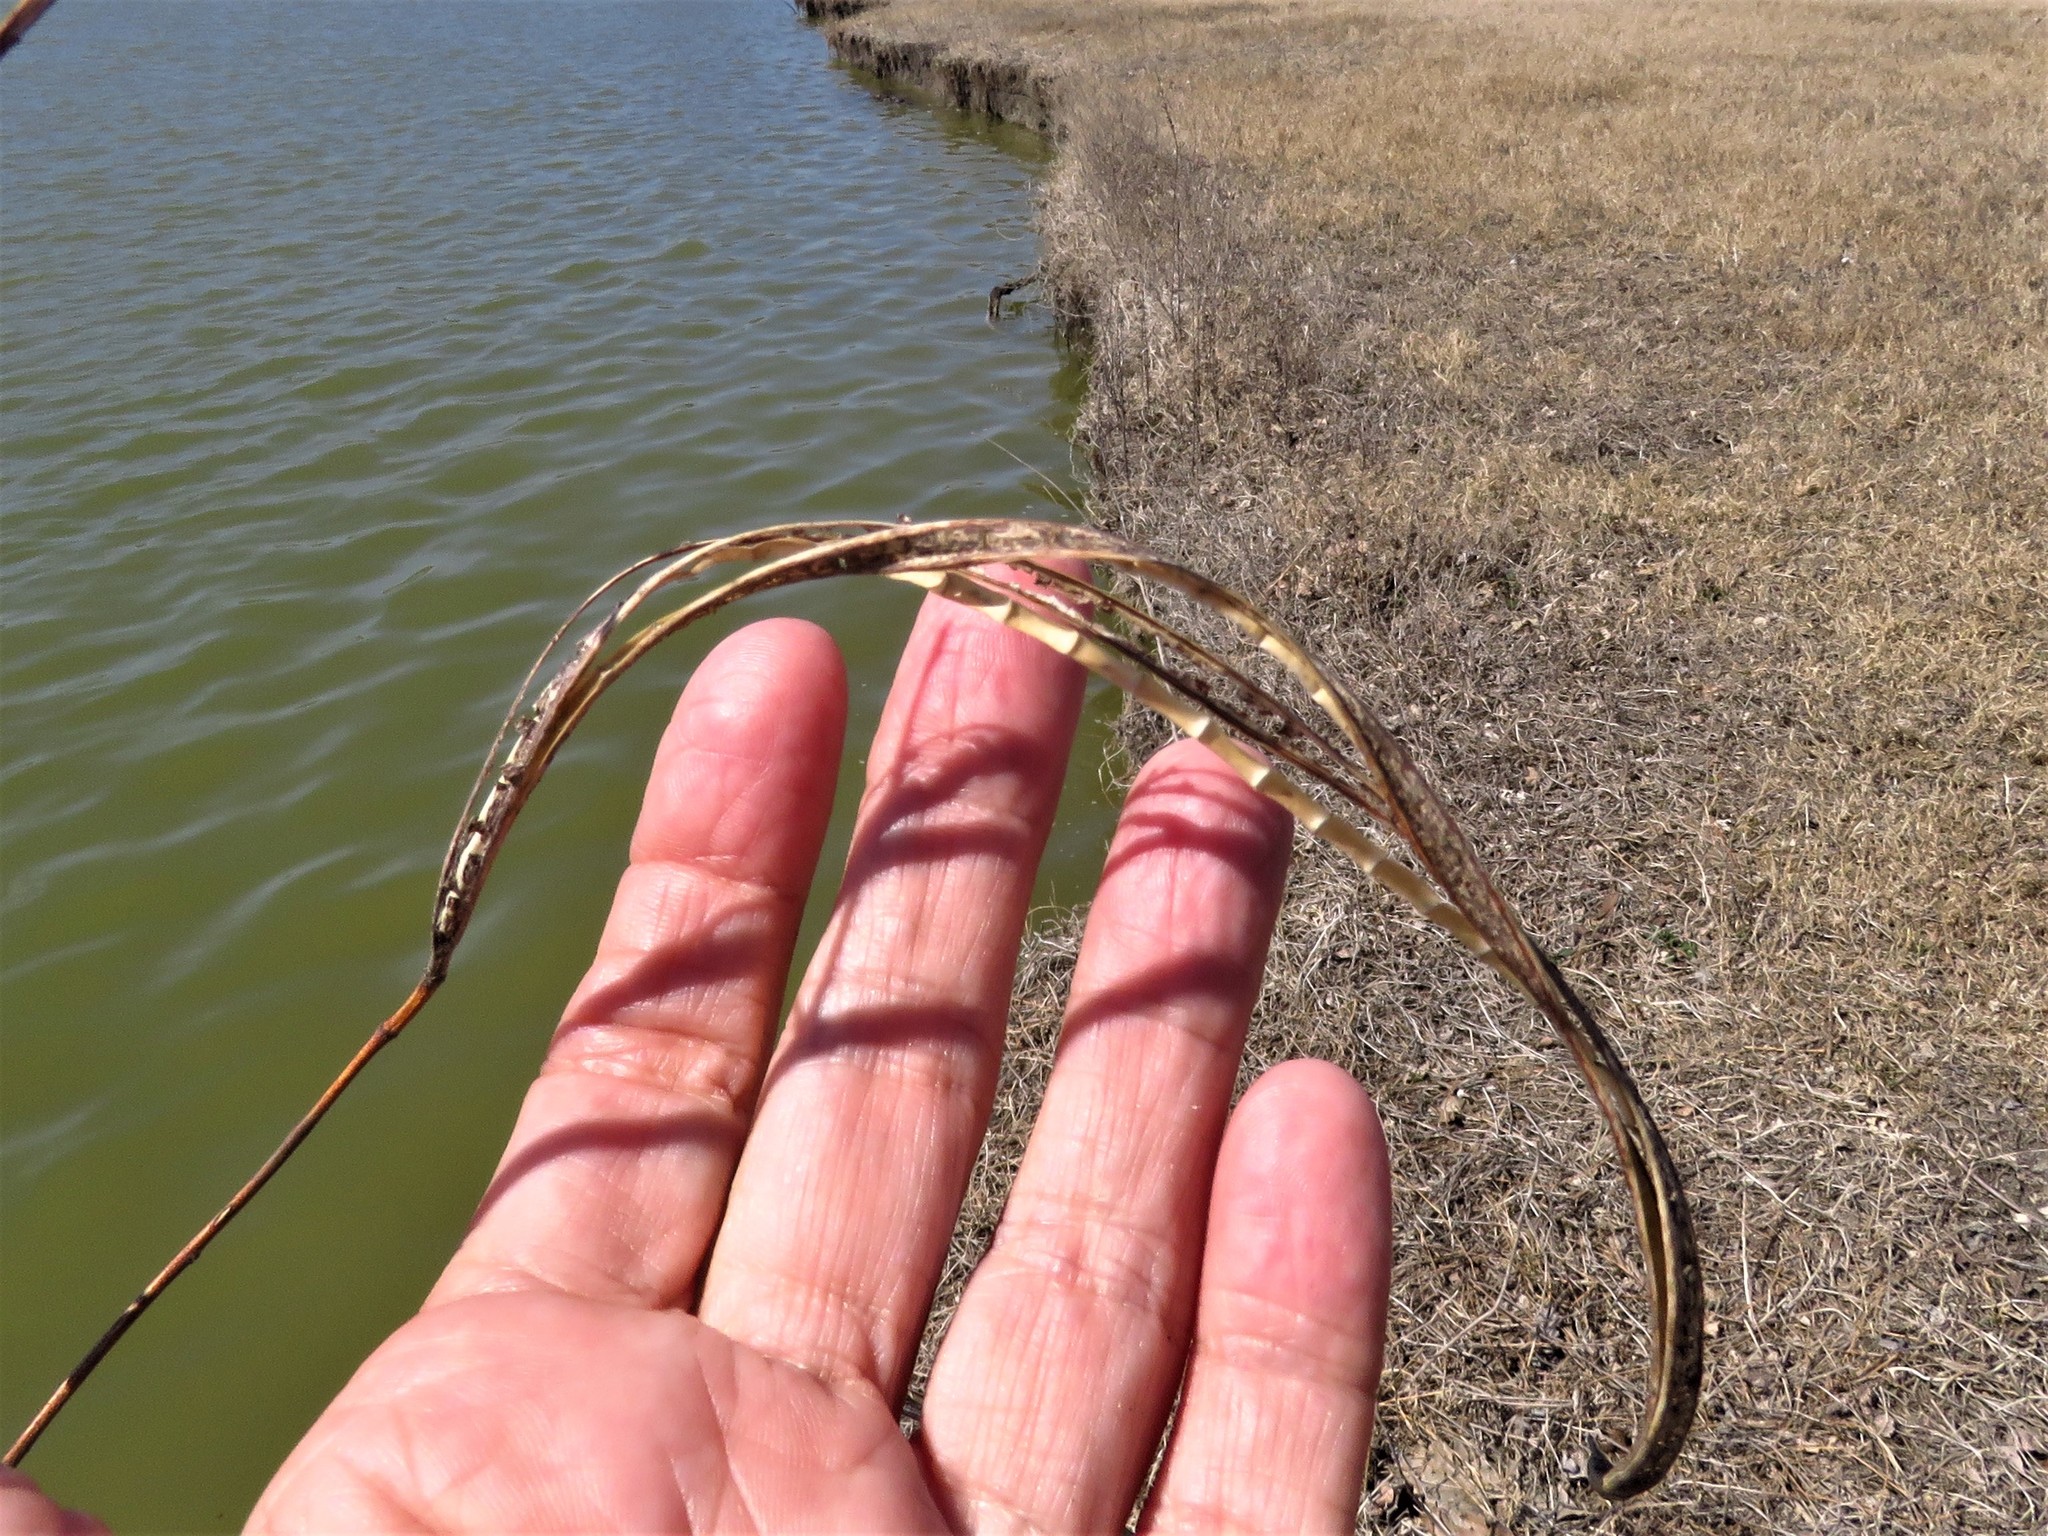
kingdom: Plantae
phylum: Tracheophyta
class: Magnoliopsida
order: Fabales
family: Fabaceae
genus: Sesbania
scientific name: Sesbania herbacea
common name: Bigpod sesbania
